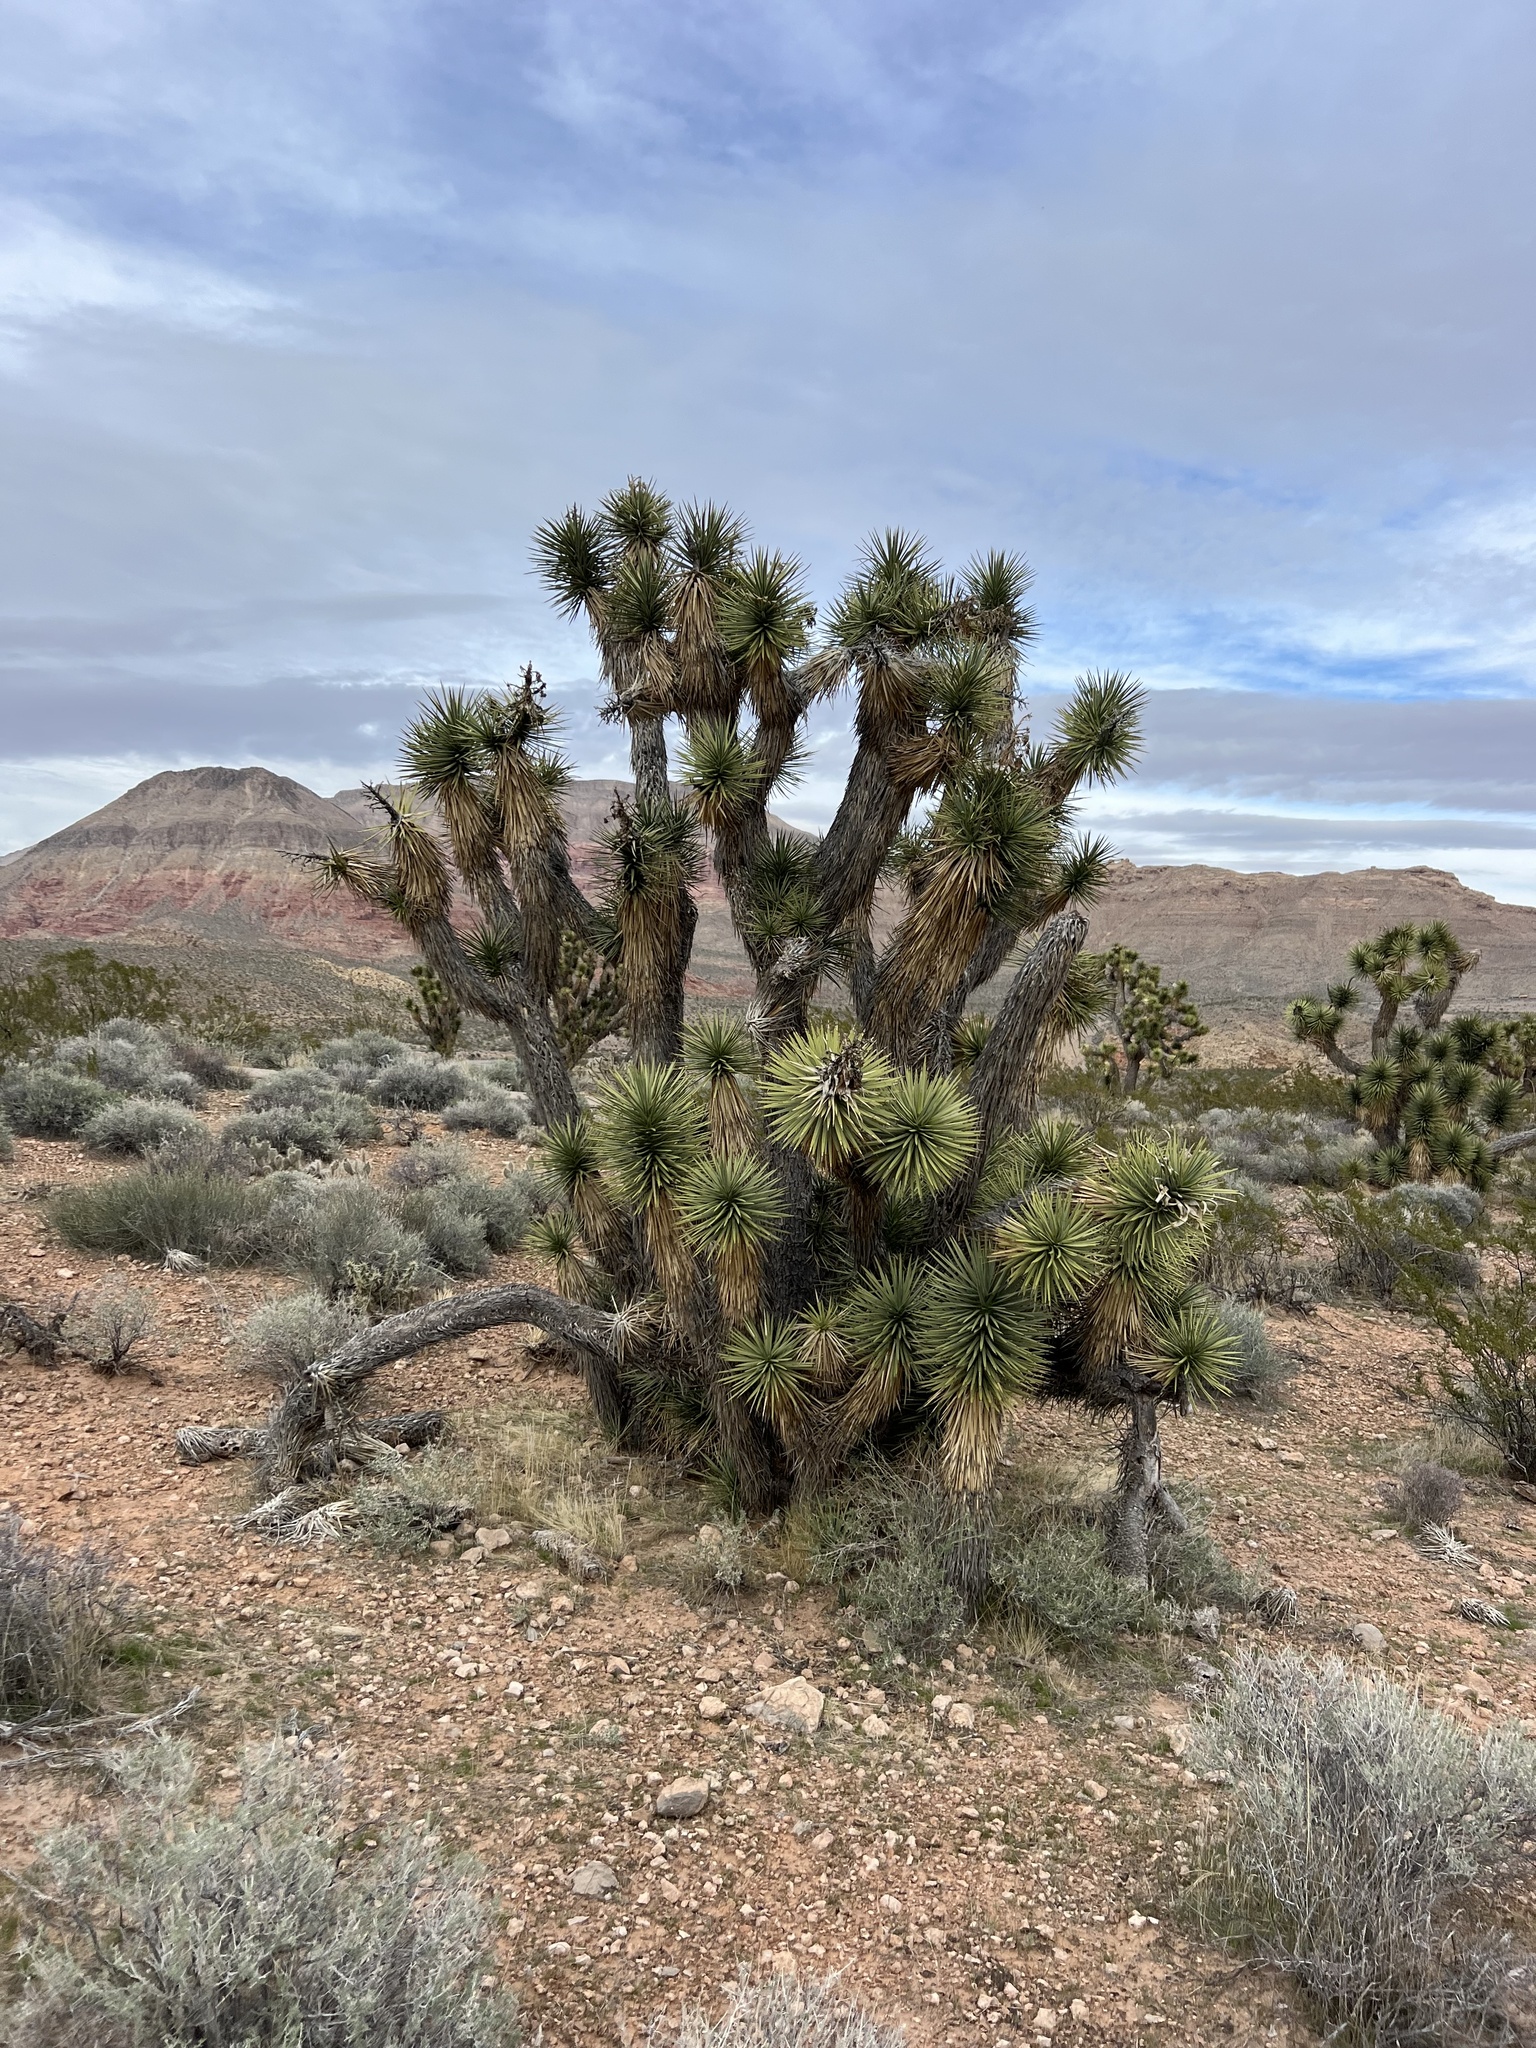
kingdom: Plantae
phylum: Tracheophyta
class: Liliopsida
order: Asparagales
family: Asparagaceae
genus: Yucca
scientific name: Yucca brevifolia
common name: Joshua tree
